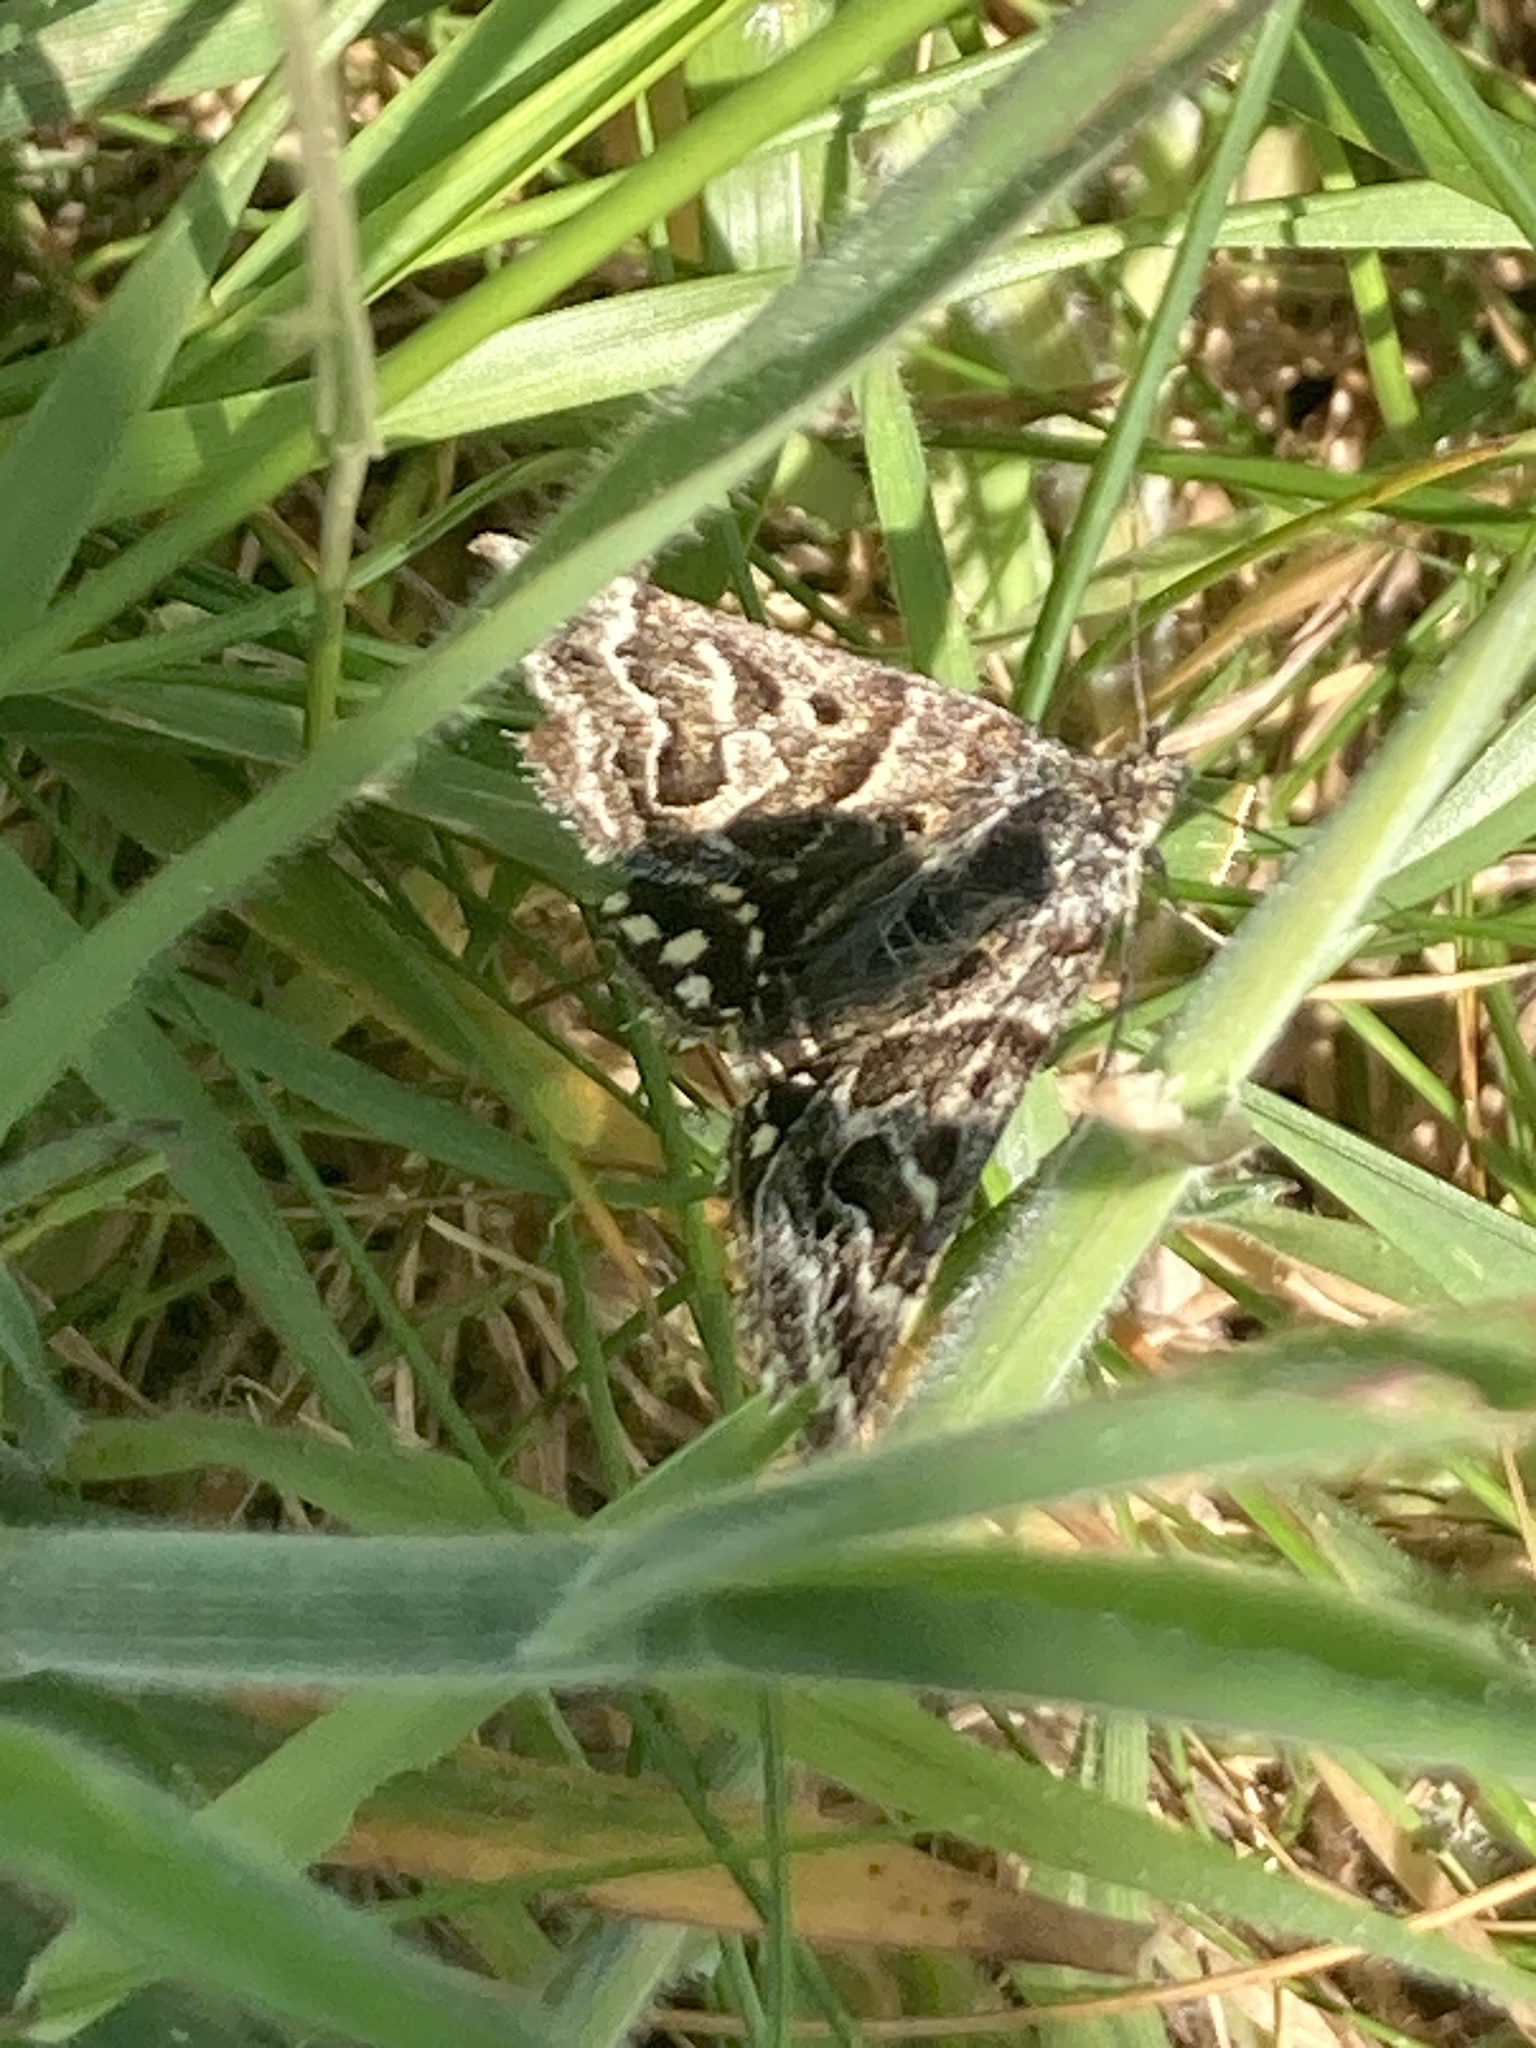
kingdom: Animalia
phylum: Arthropoda
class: Insecta
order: Lepidoptera
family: Erebidae
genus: Callistege
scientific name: Callistege mi
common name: Mother shipton
